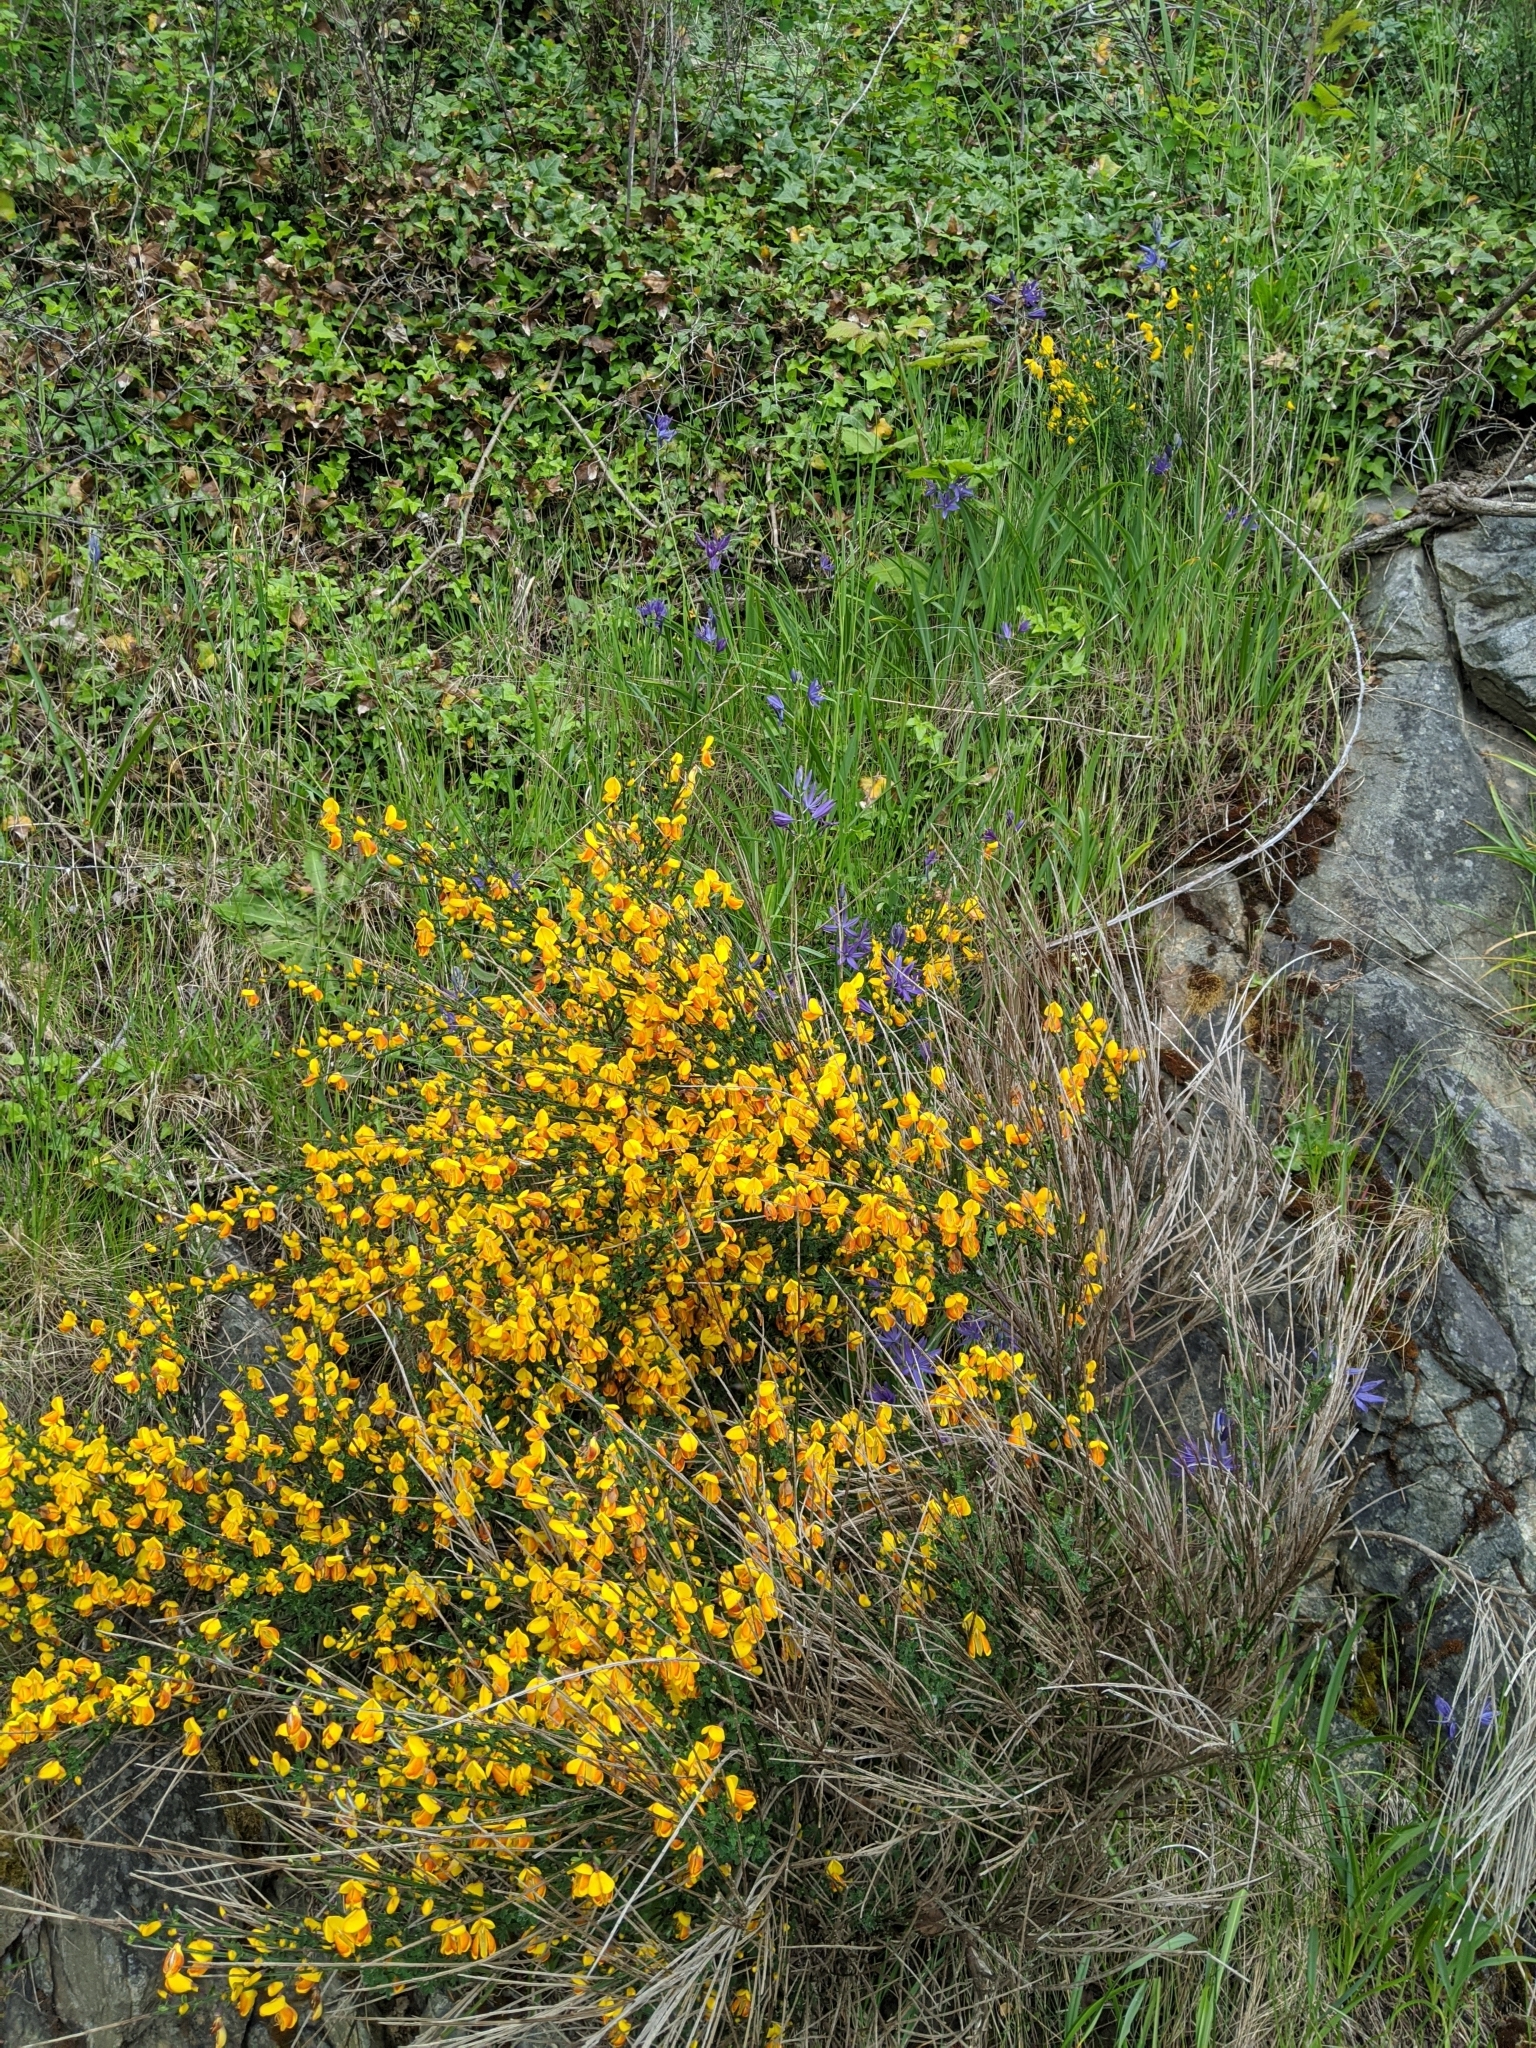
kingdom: Plantae
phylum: Tracheophyta
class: Magnoliopsida
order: Fabales
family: Fabaceae
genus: Cytisus
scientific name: Cytisus scoparius
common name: Scotch broom
